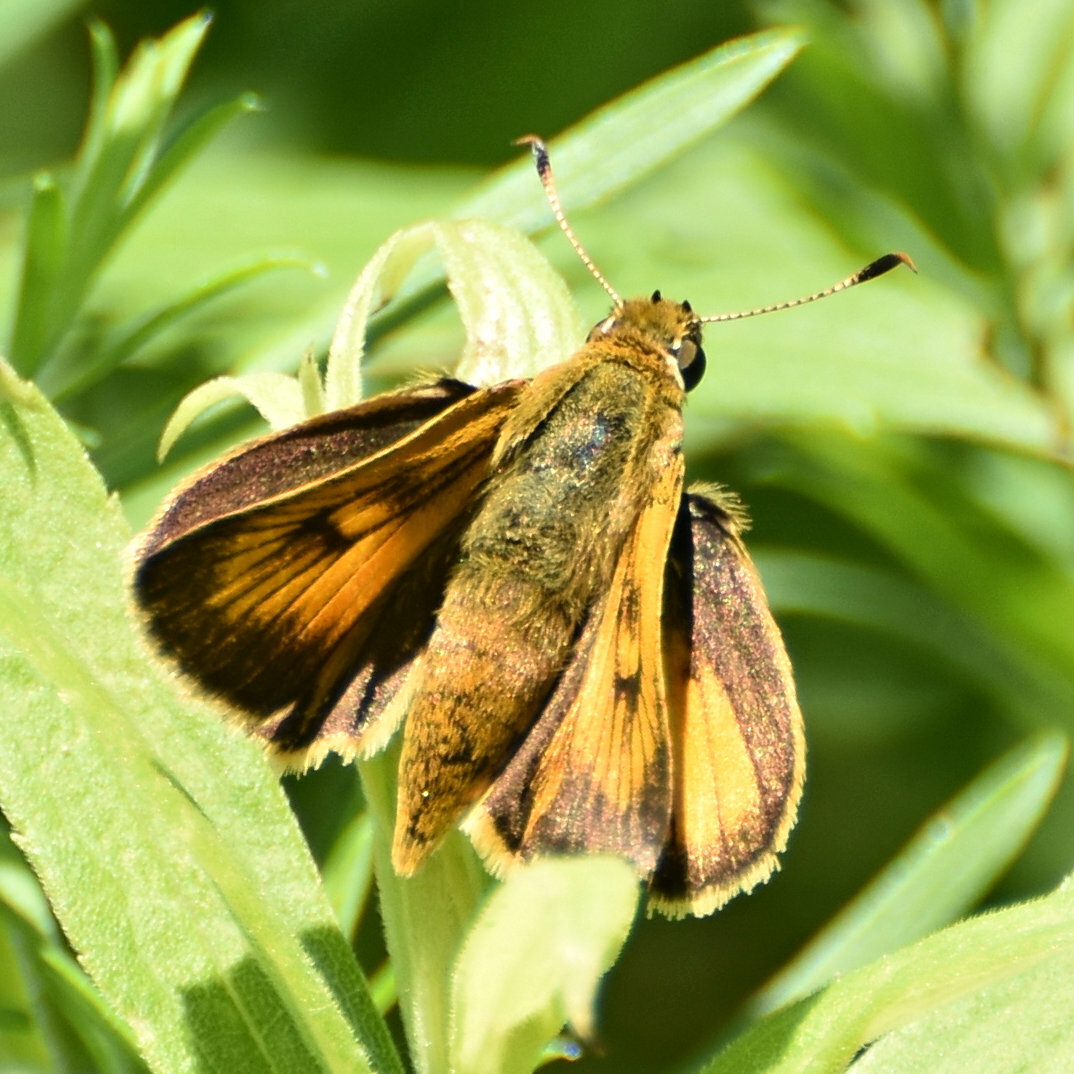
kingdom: Animalia
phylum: Arthropoda
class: Insecta
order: Lepidoptera
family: Hesperiidae
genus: Atrytone
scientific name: Atrytone delaware
